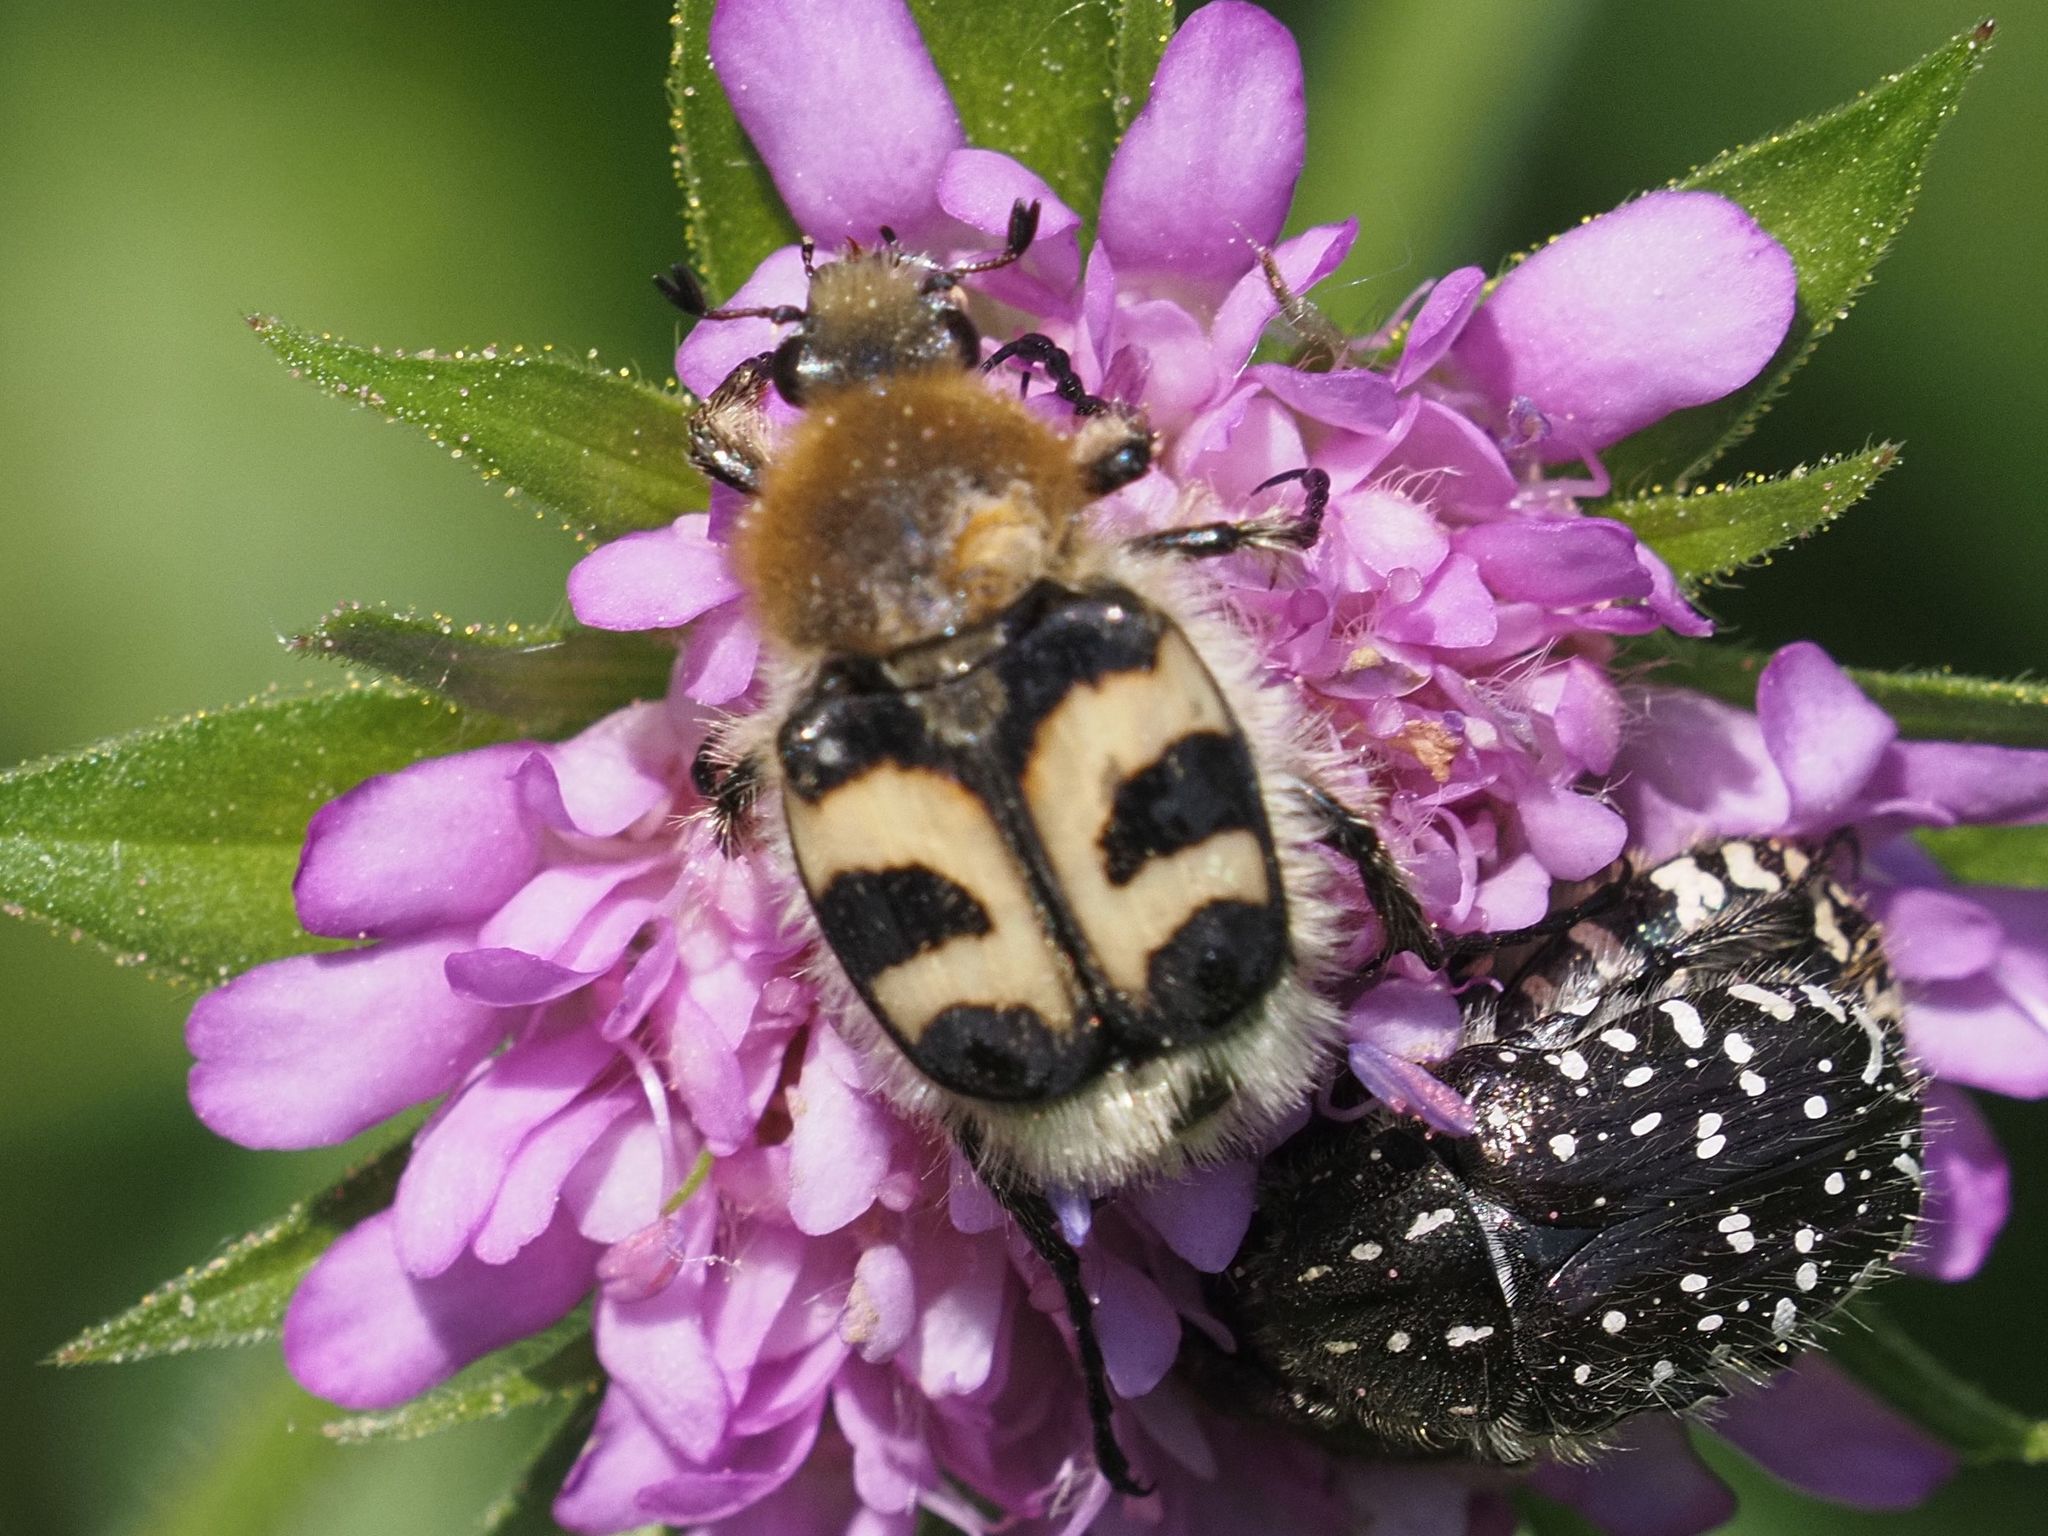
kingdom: Animalia
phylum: Arthropoda
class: Insecta
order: Coleoptera
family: Scarabaeidae
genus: Trichius
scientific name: Trichius fasciatus
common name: Bee beetle
